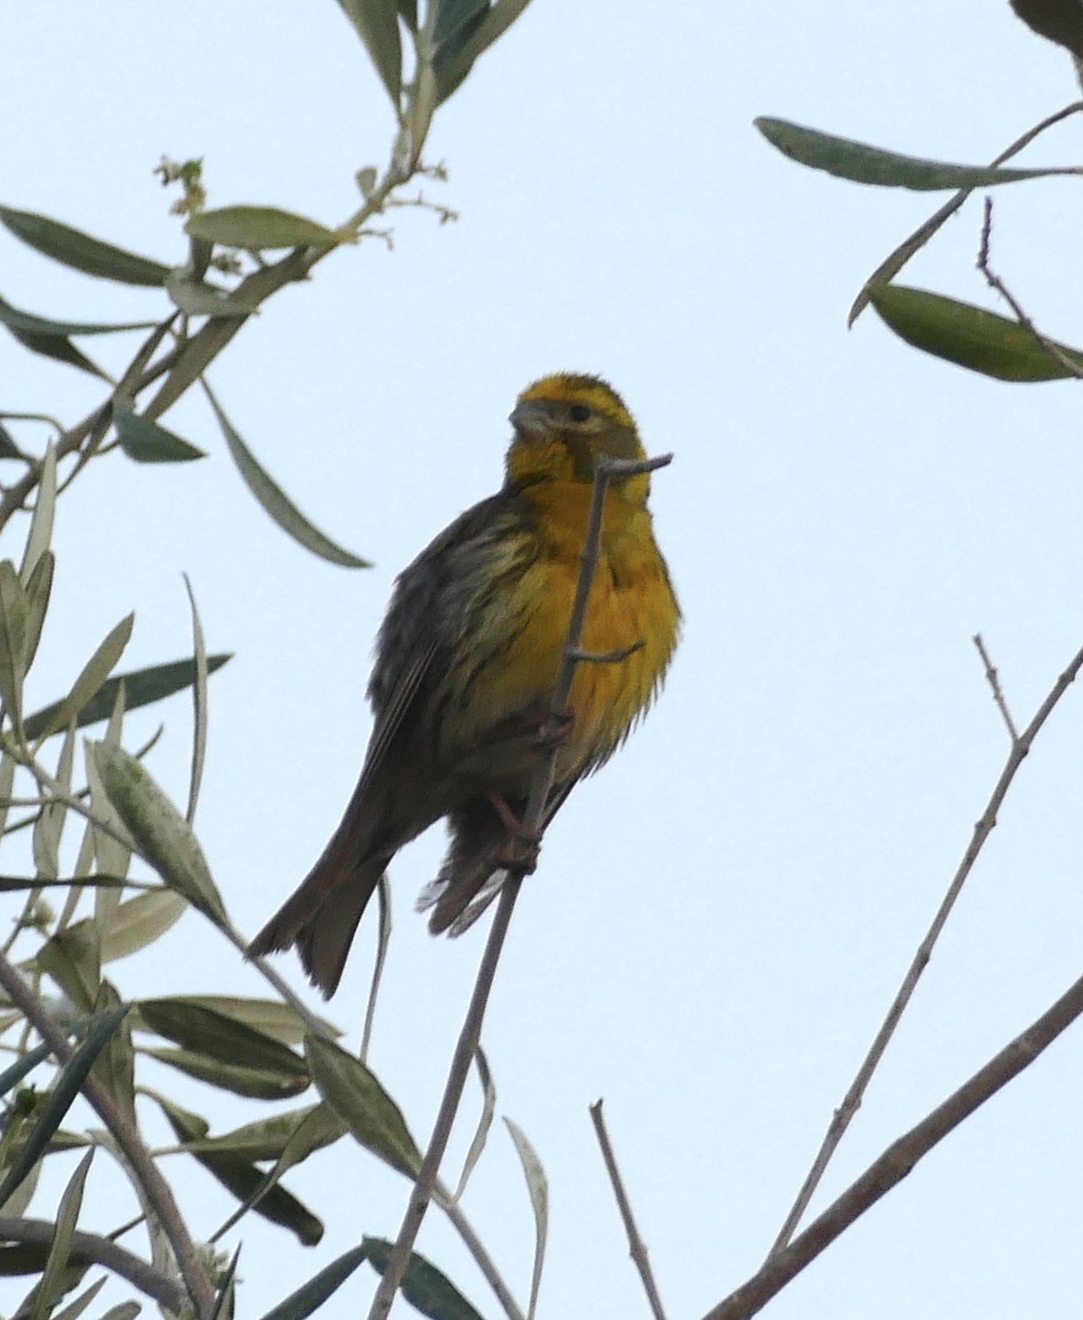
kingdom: Animalia
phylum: Chordata
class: Aves
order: Passeriformes
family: Fringillidae
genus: Serinus
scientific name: Serinus serinus
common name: European serin
